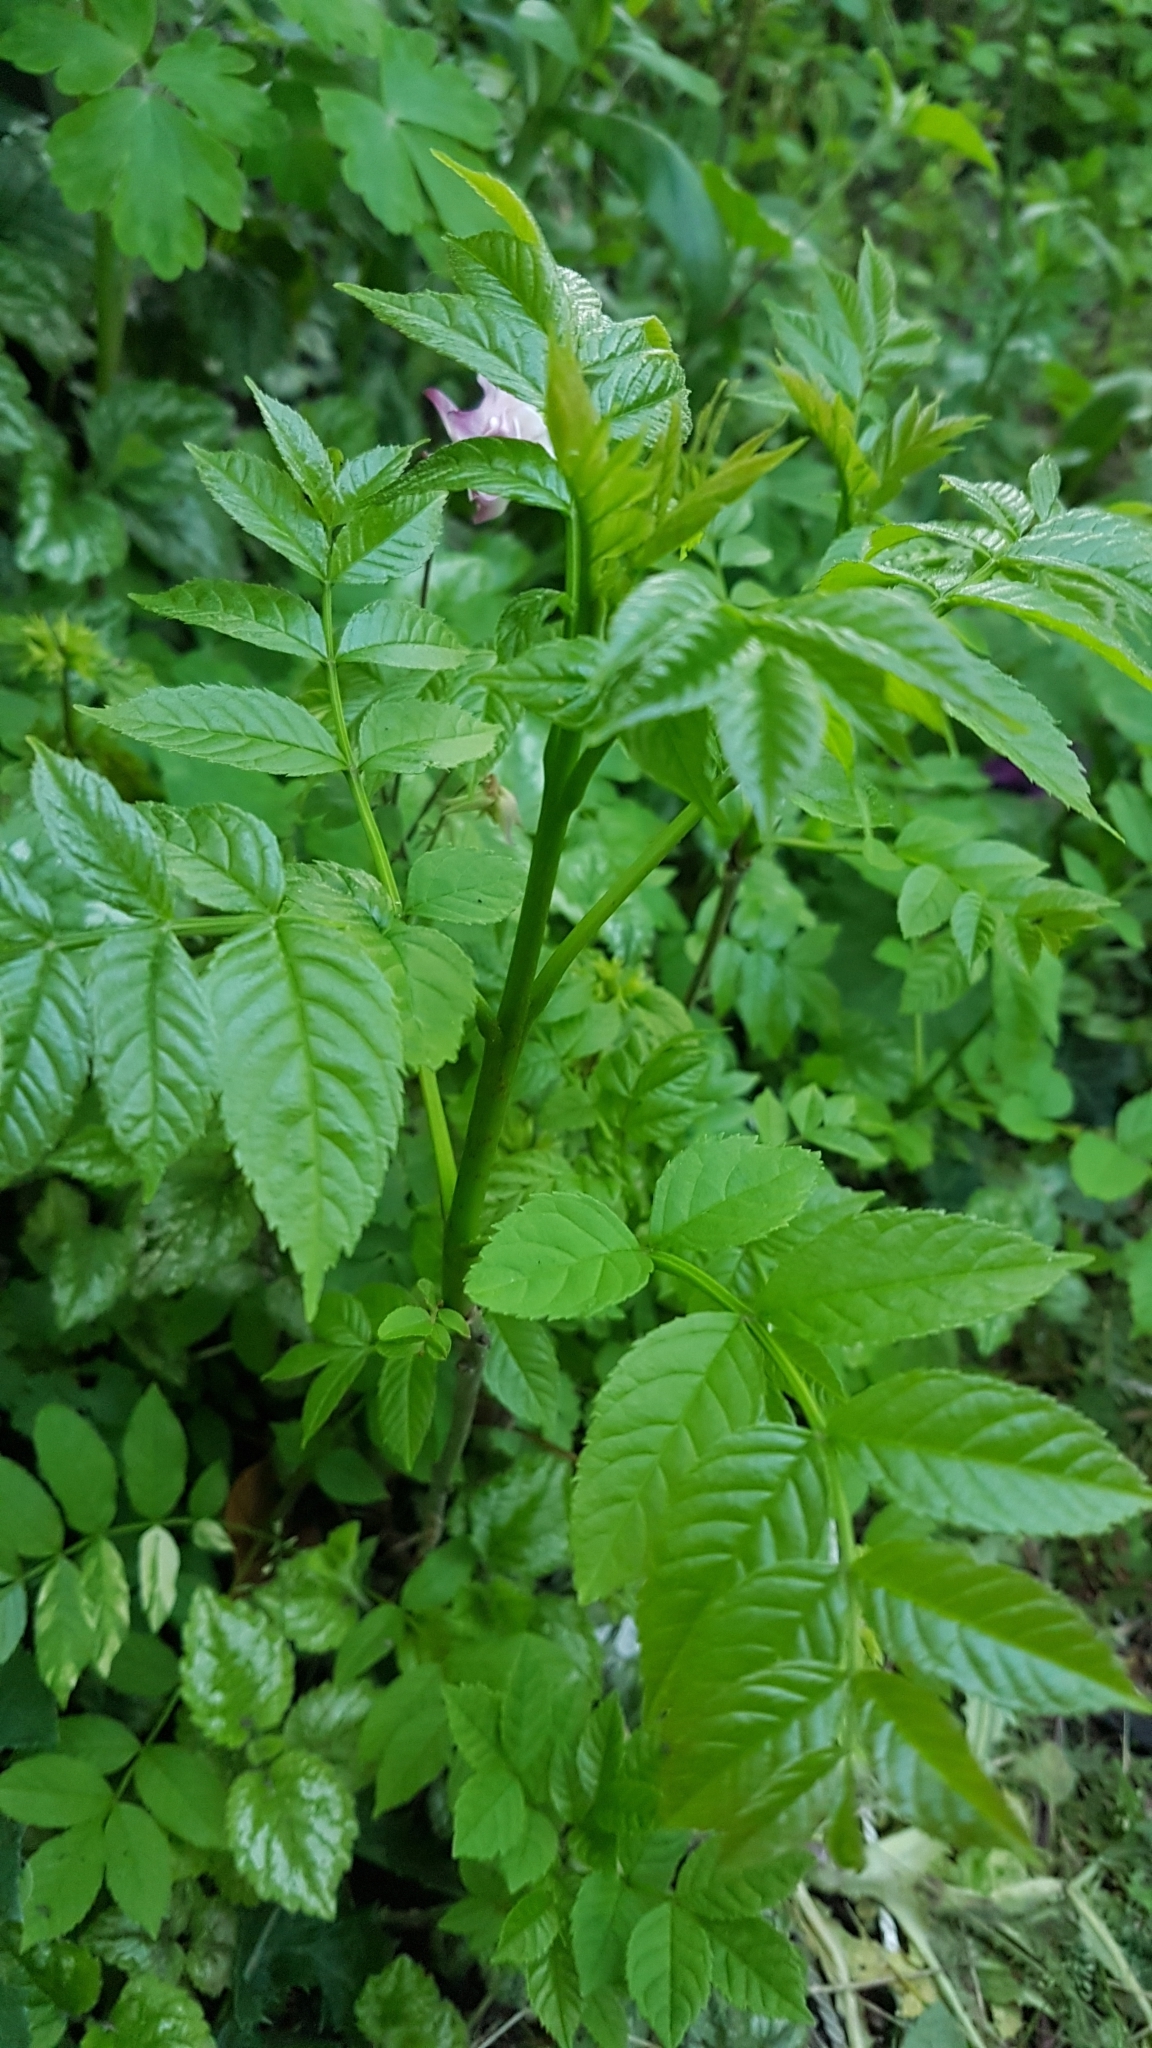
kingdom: Plantae
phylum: Tracheophyta
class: Magnoliopsida
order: Lamiales
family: Oleaceae
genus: Fraxinus
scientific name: Fraxinus excelsior
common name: European ash
